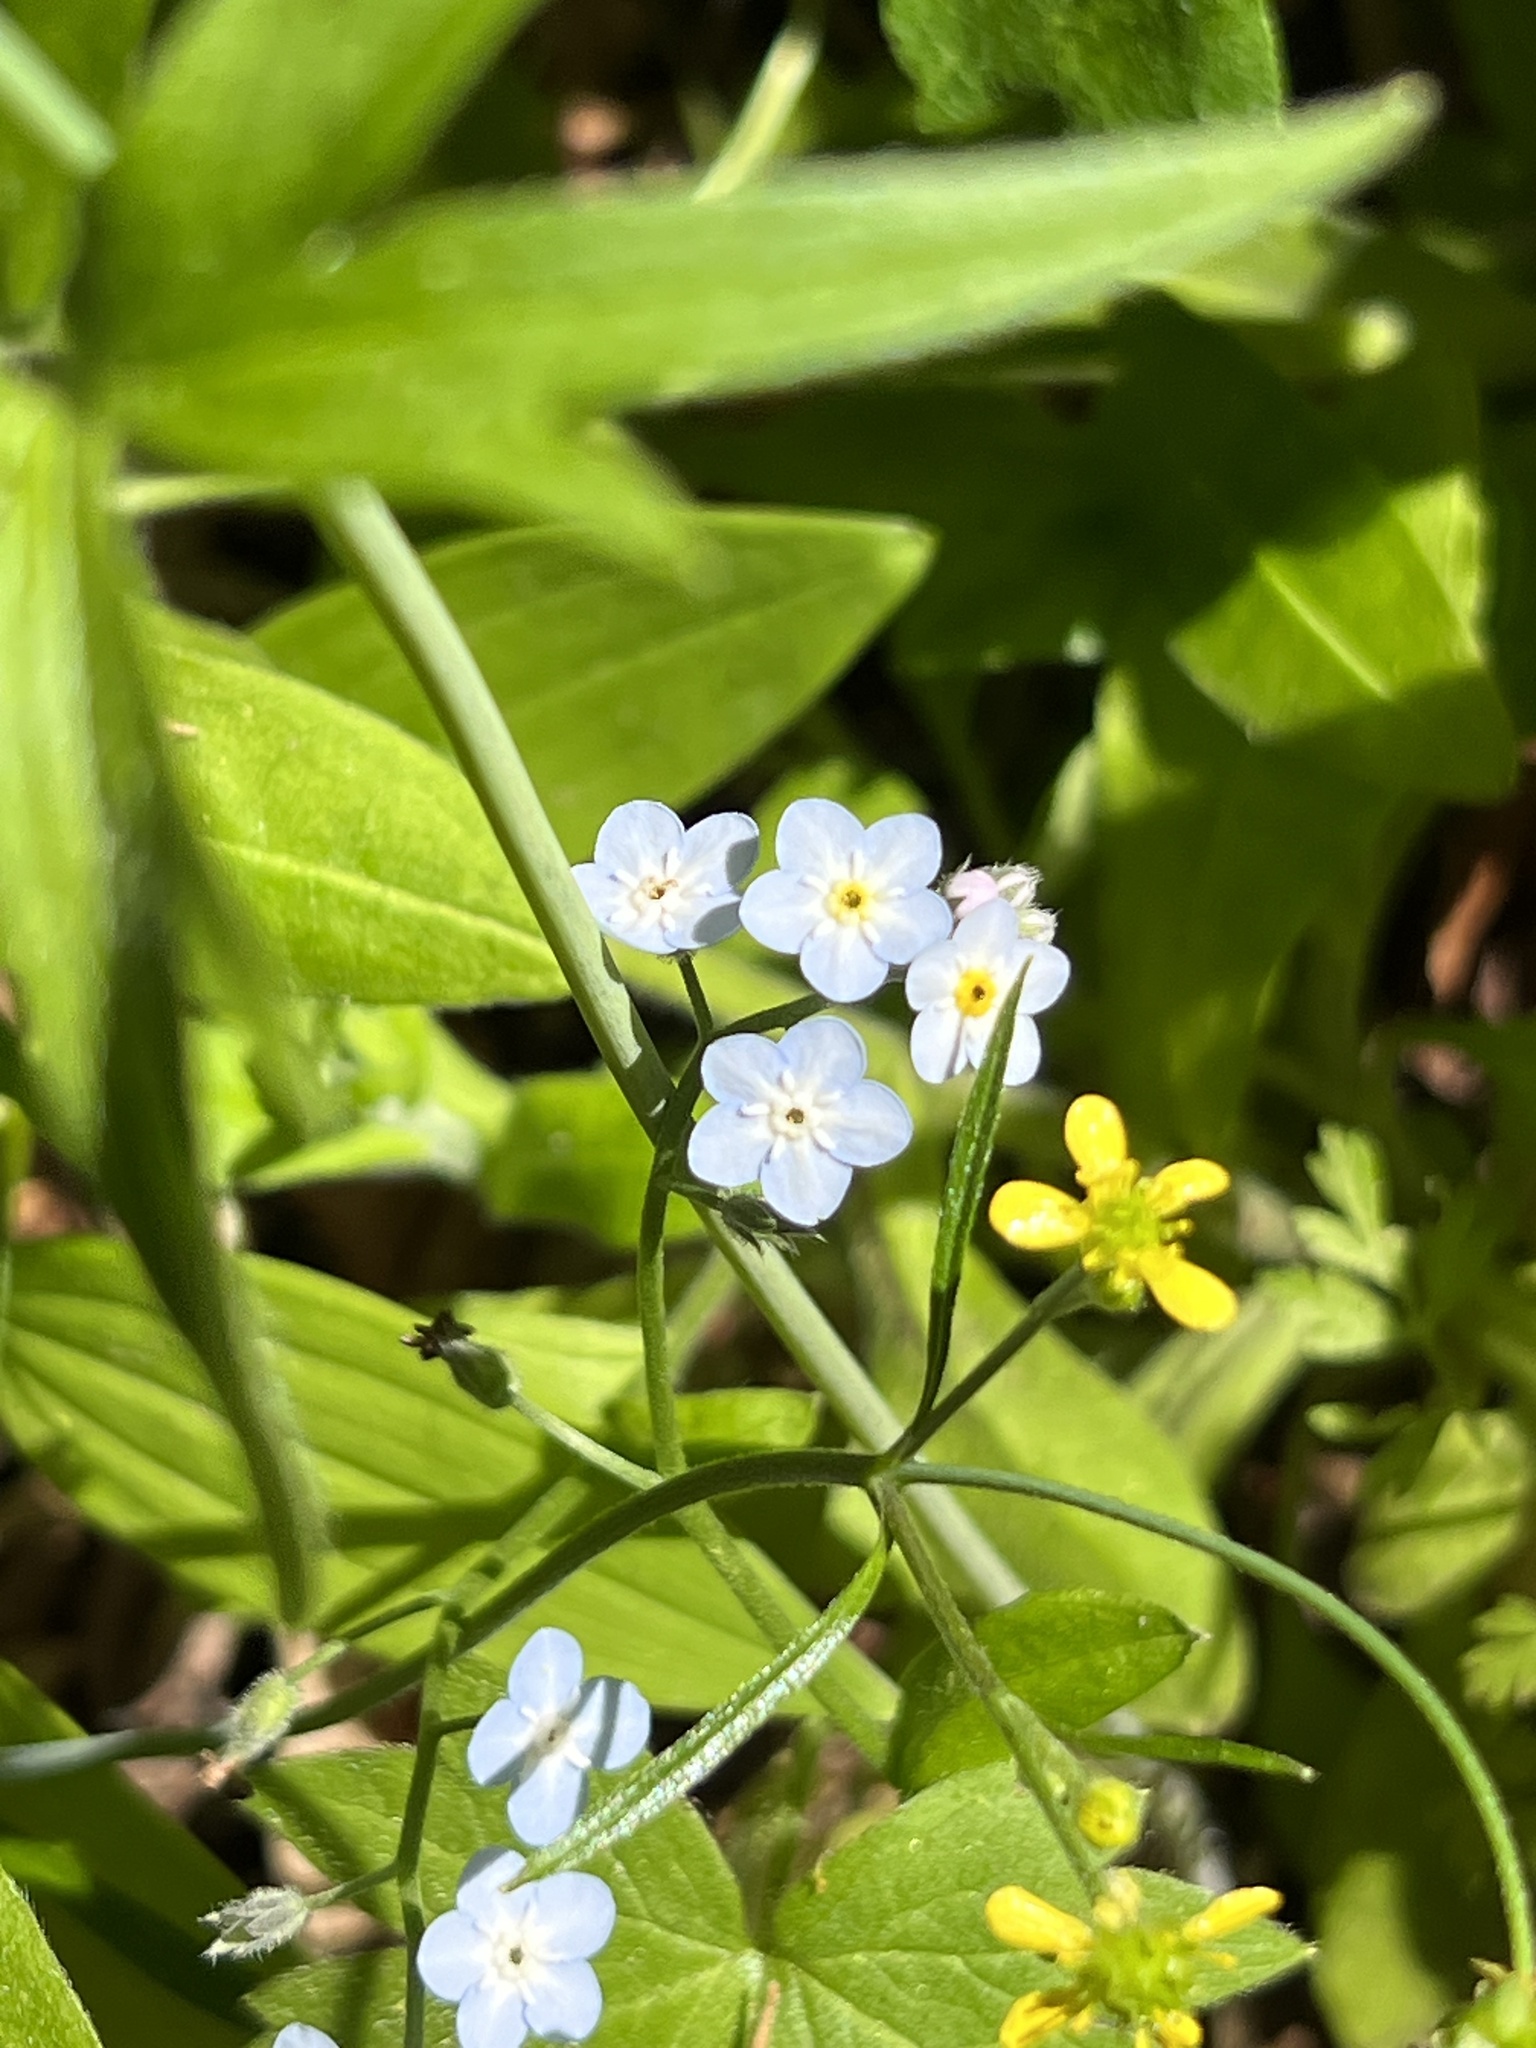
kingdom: Plantae
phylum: Tracheophyta
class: Magnoliopsida
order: Boraginales
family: Boraginaceae
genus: Myosotis
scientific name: Myosotis latifolia
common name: Broadleaf forget-me-not
